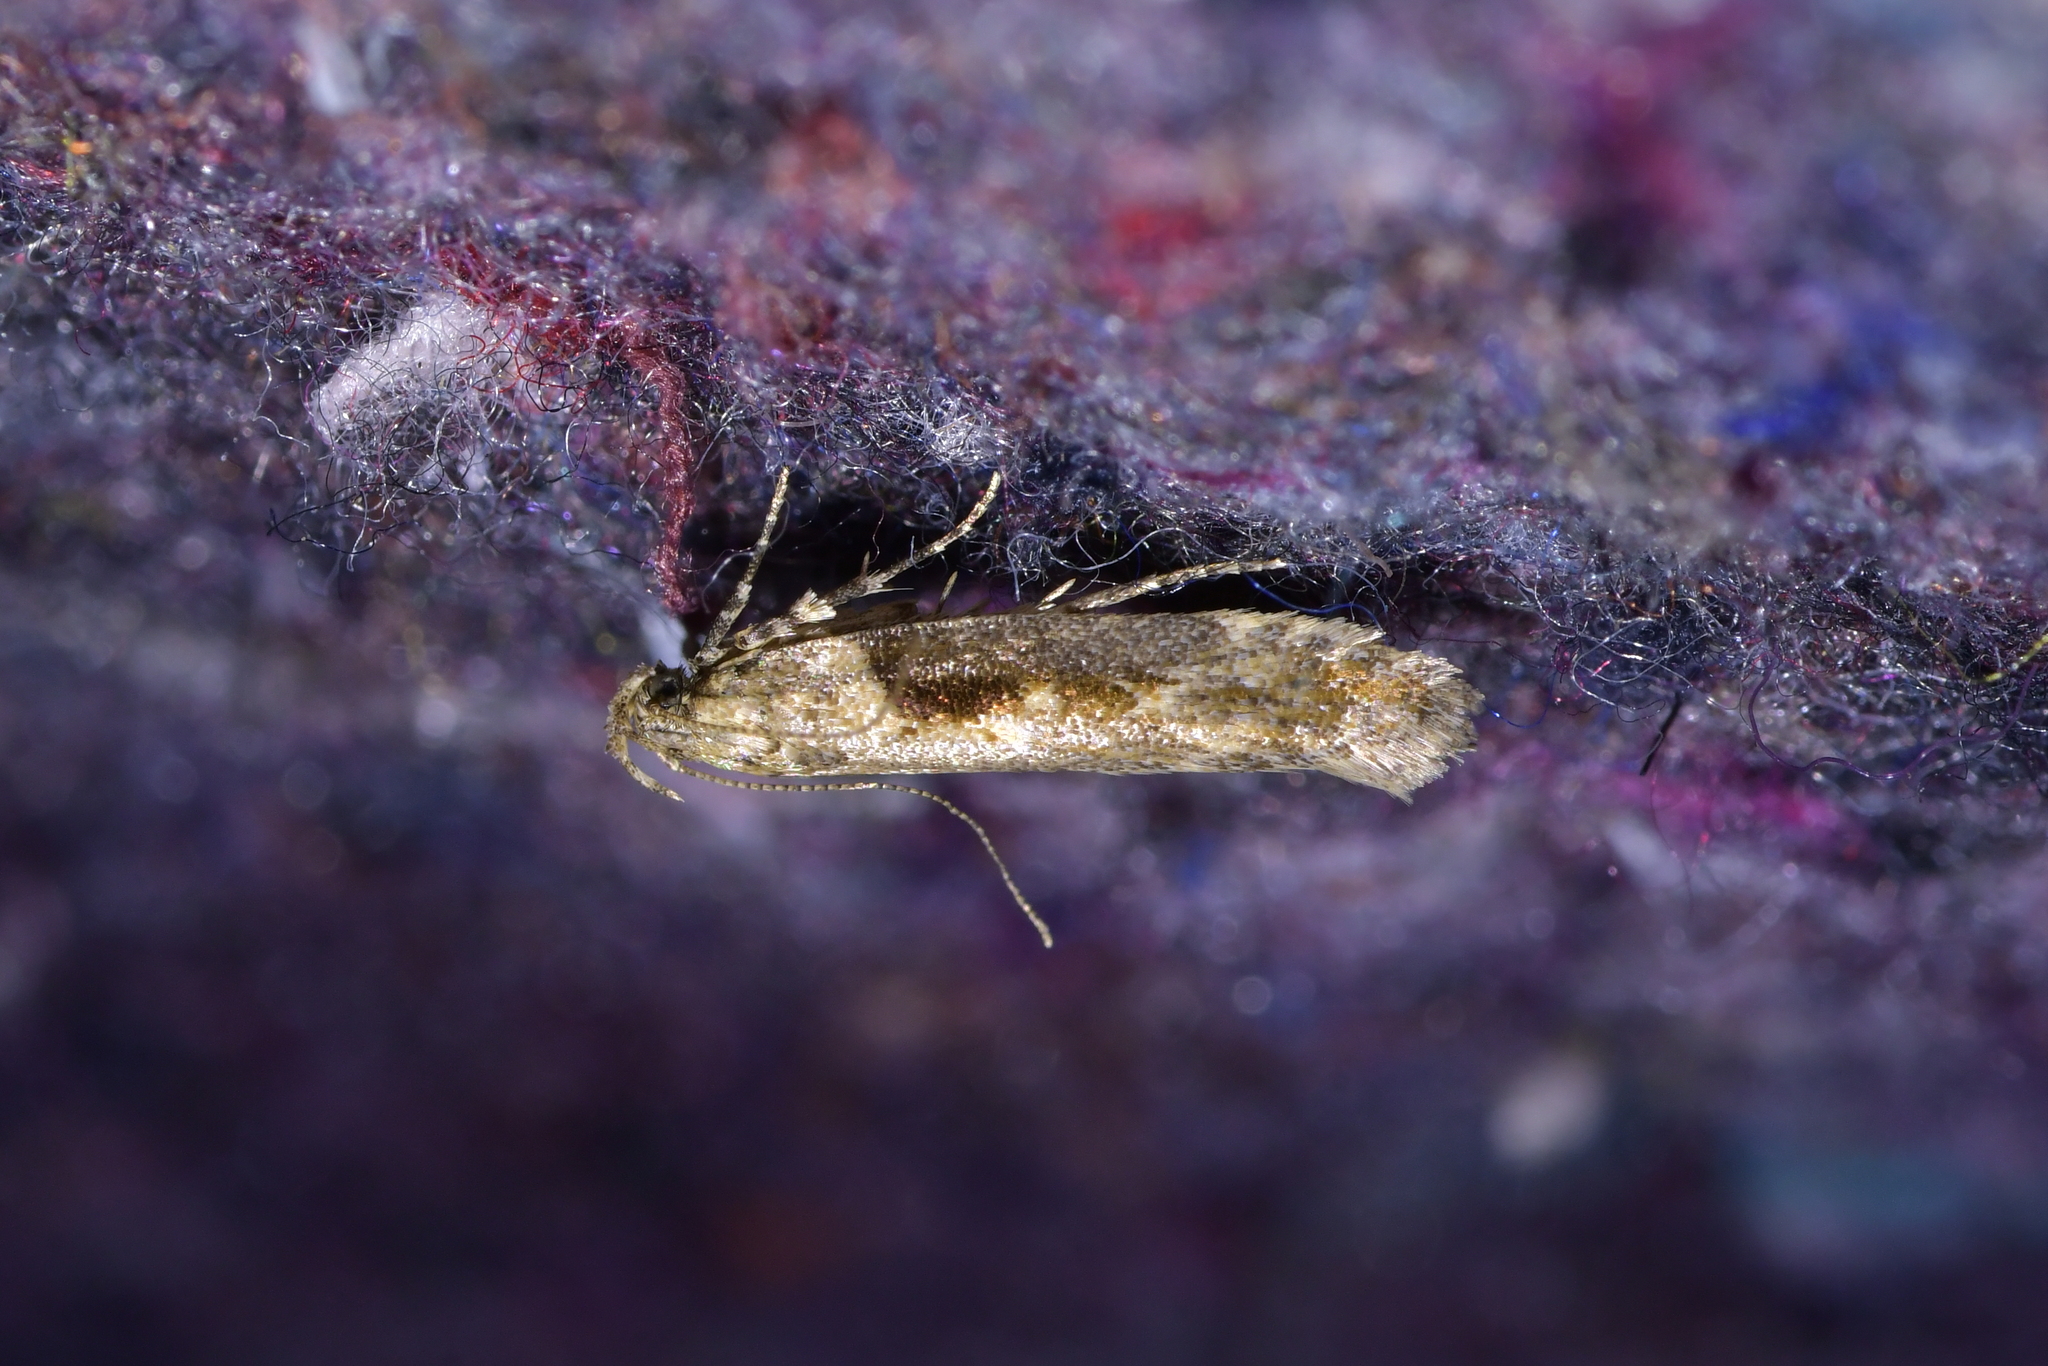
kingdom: Animalia
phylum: Arthropoda
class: Insecta
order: Lepidoptera
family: Gelechiidae
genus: Symmetrischema
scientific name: Symmetrischema tangolias
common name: Moth
